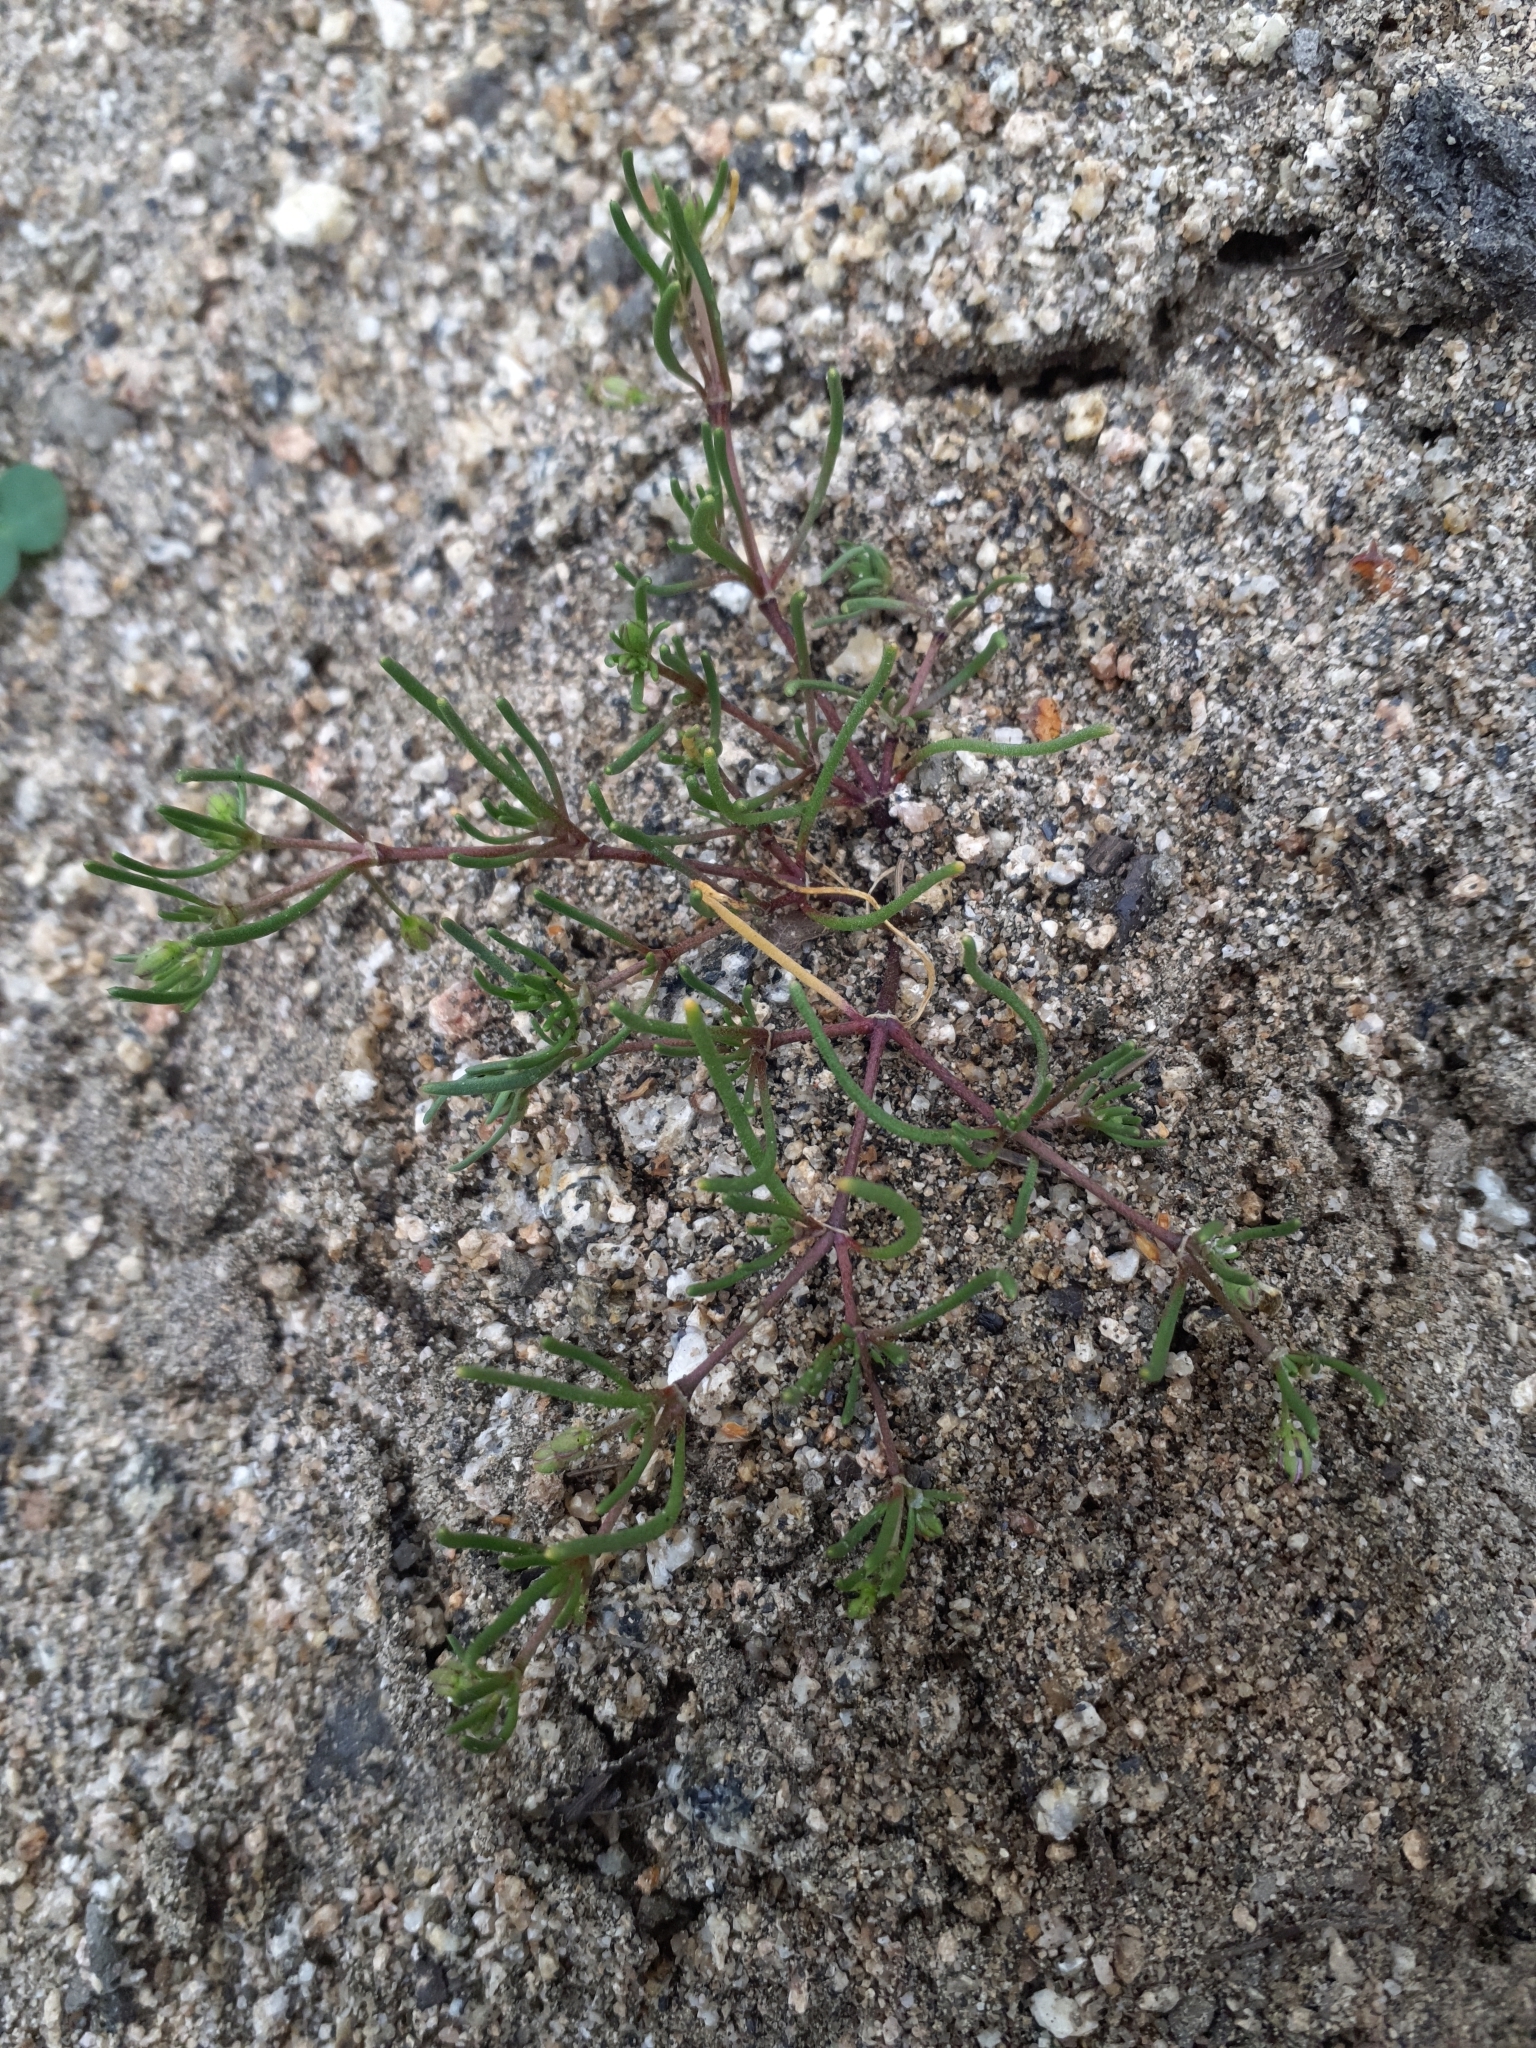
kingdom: Plantae
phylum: Tracheophyta
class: Magnoliopsida
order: Caryophyllales
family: Caryophyllaceae
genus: Spergularia
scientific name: Spergularia echinosperma
